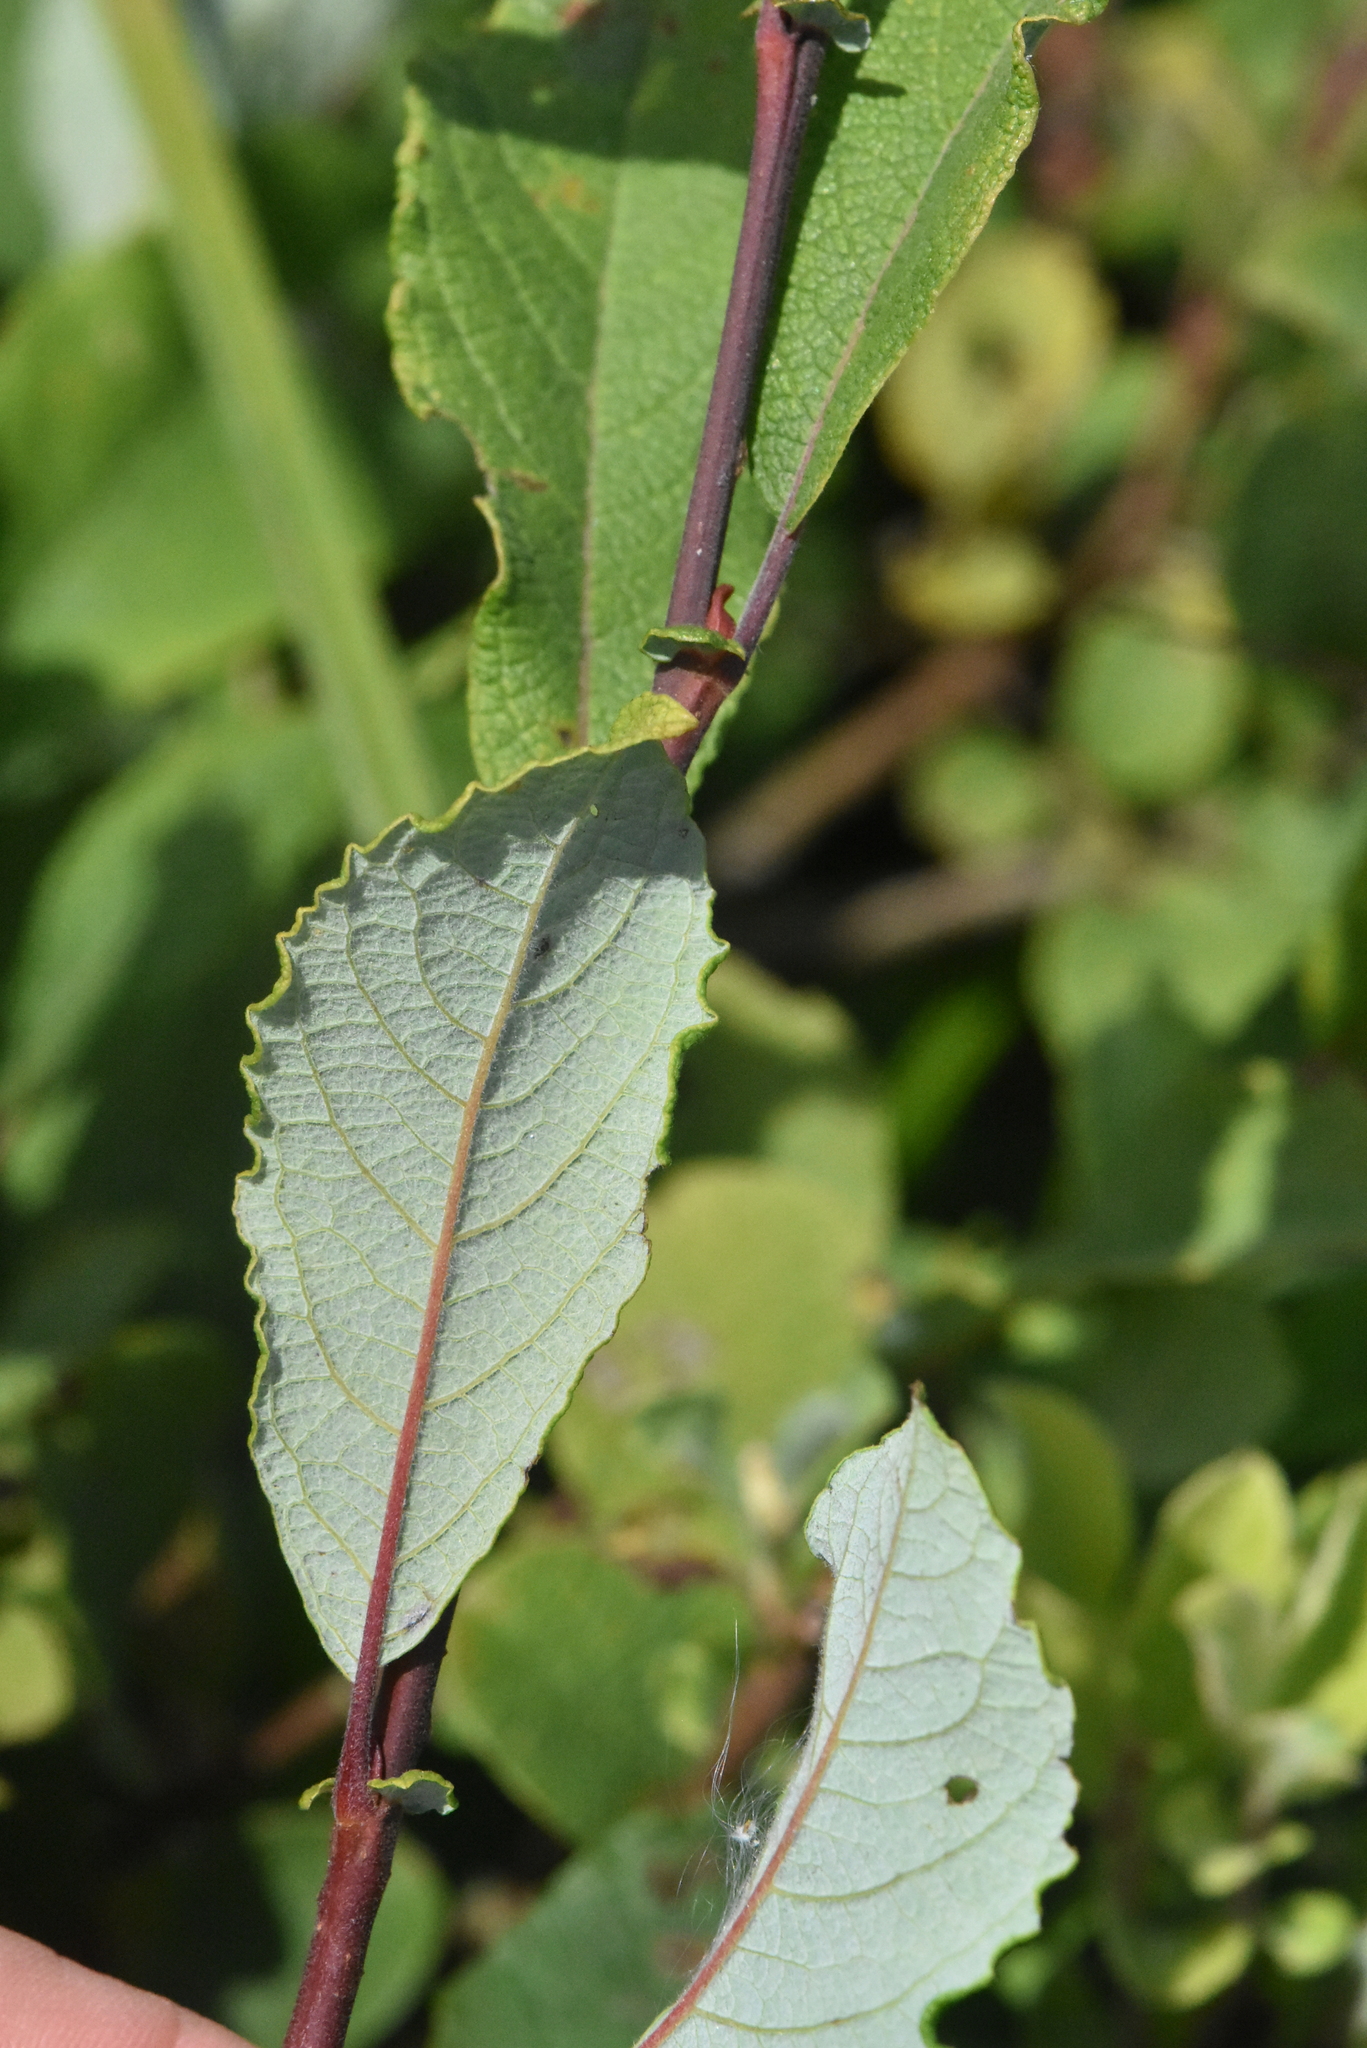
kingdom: Plantae
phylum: Tracheophyta
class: Magnoliopsida
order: Malpighiales
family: Salicaceae
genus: Salix
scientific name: Salix aurita
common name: Eared willow
